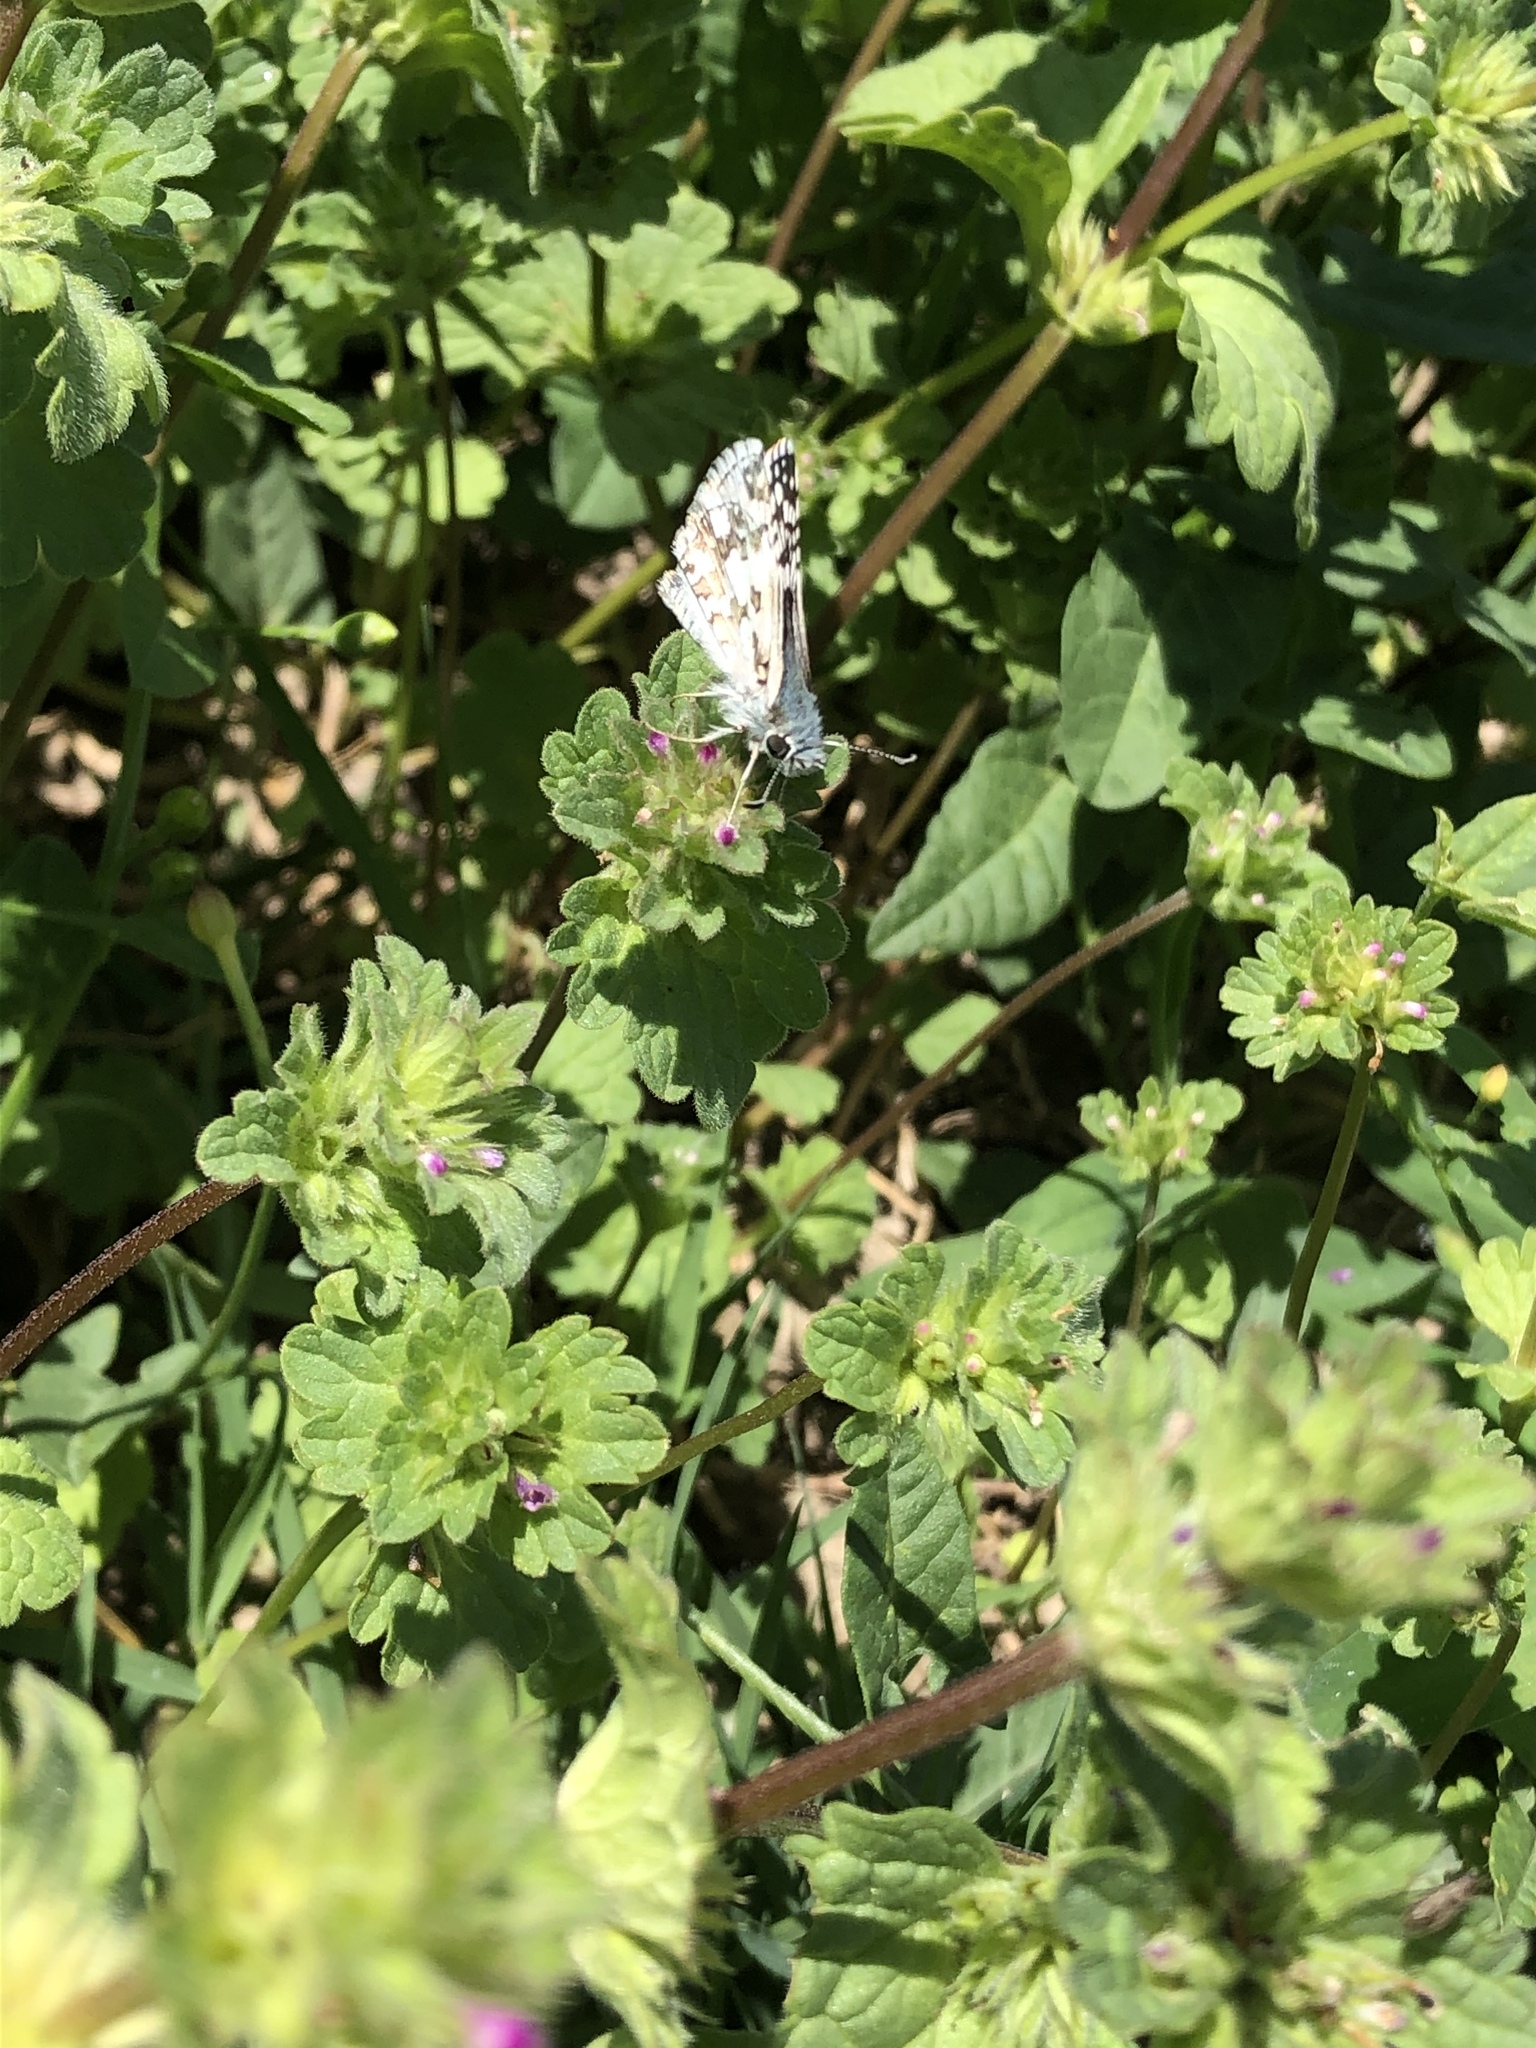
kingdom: Animalia
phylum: Arthropoda
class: Insecta
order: Lepidoptera
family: Hesperiidae
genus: Burnsius
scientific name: Burnsius communis
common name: Common checkered-skipper
